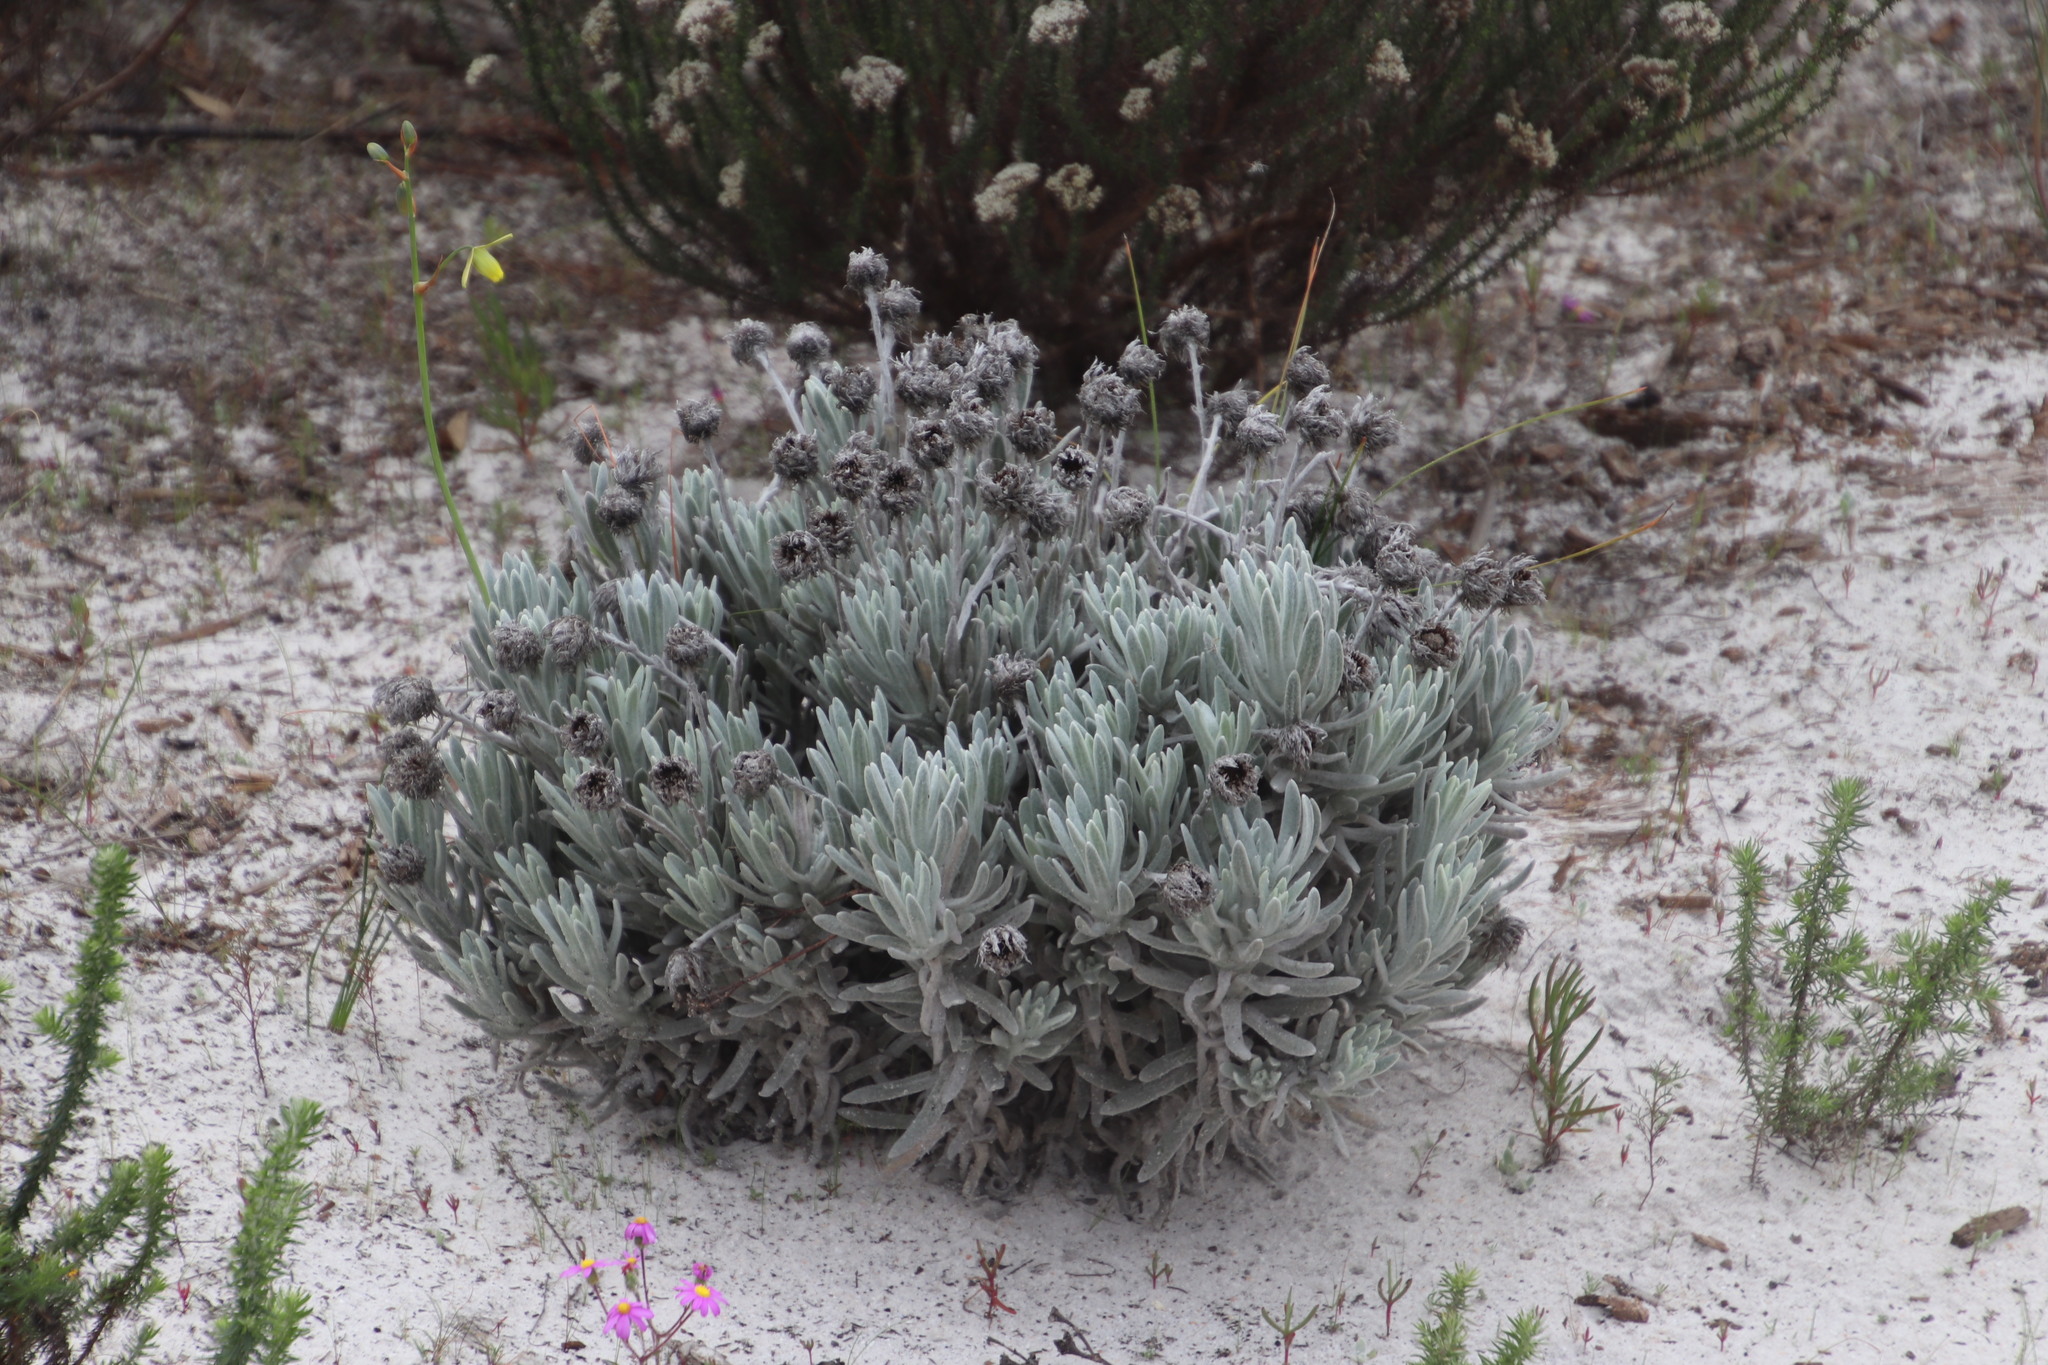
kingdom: Plantae
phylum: Tracheophyta
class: Magnoliopsida
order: Asterales
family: Asteraceae
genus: Syncarpha
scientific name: Syncarpha vestita
